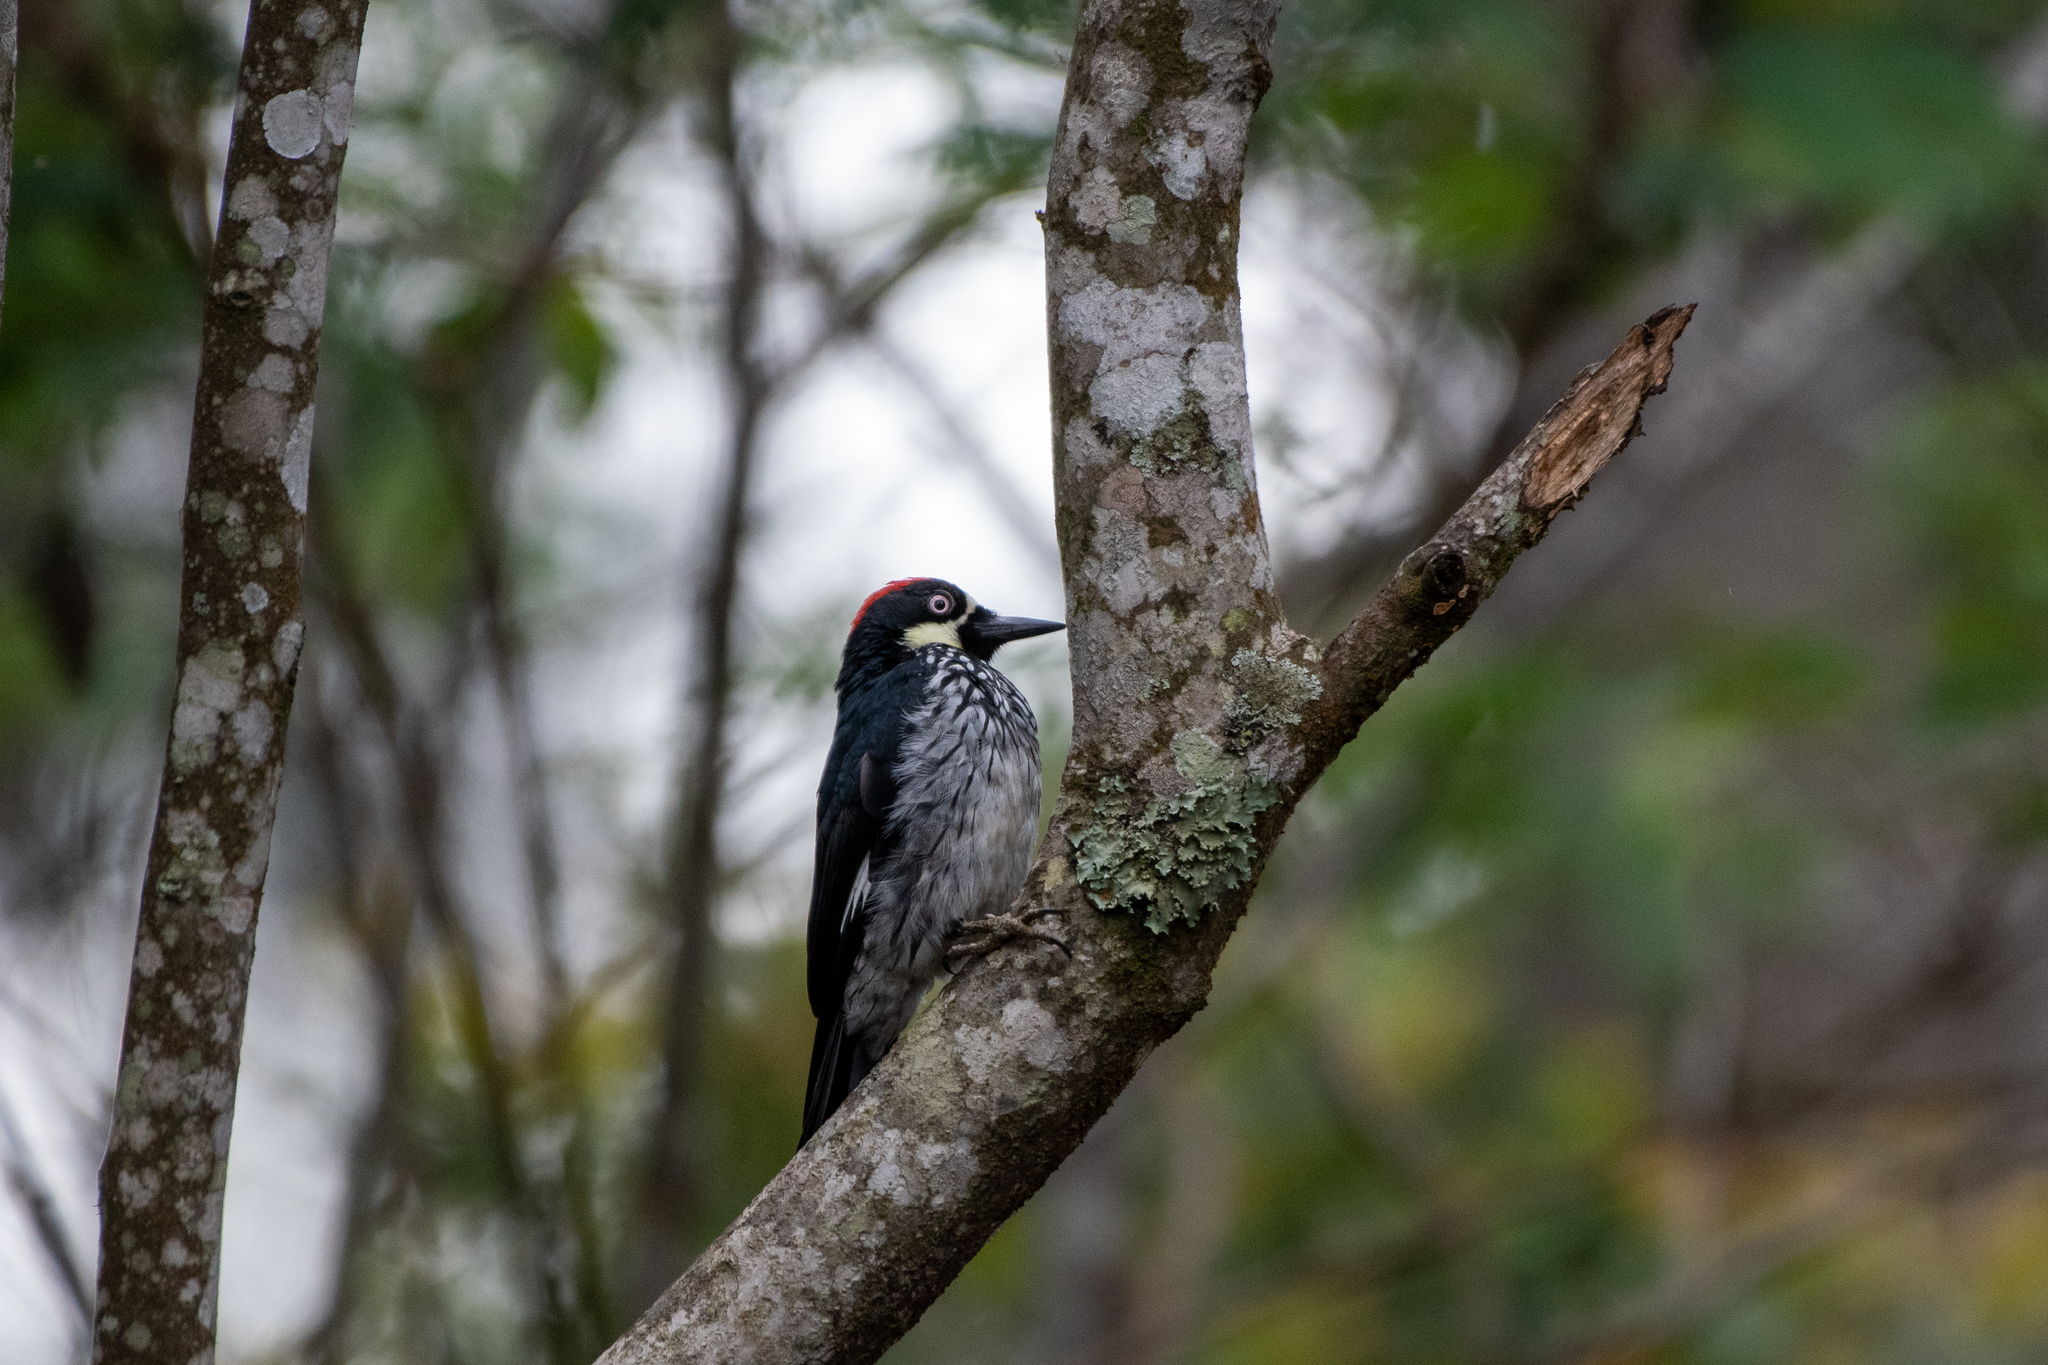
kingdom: Animalia
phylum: Chordata
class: Aves
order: Piciformes
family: Picidae
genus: Melanerpes
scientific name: Melanerpes formicivorus
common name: Acorn woodpecker
